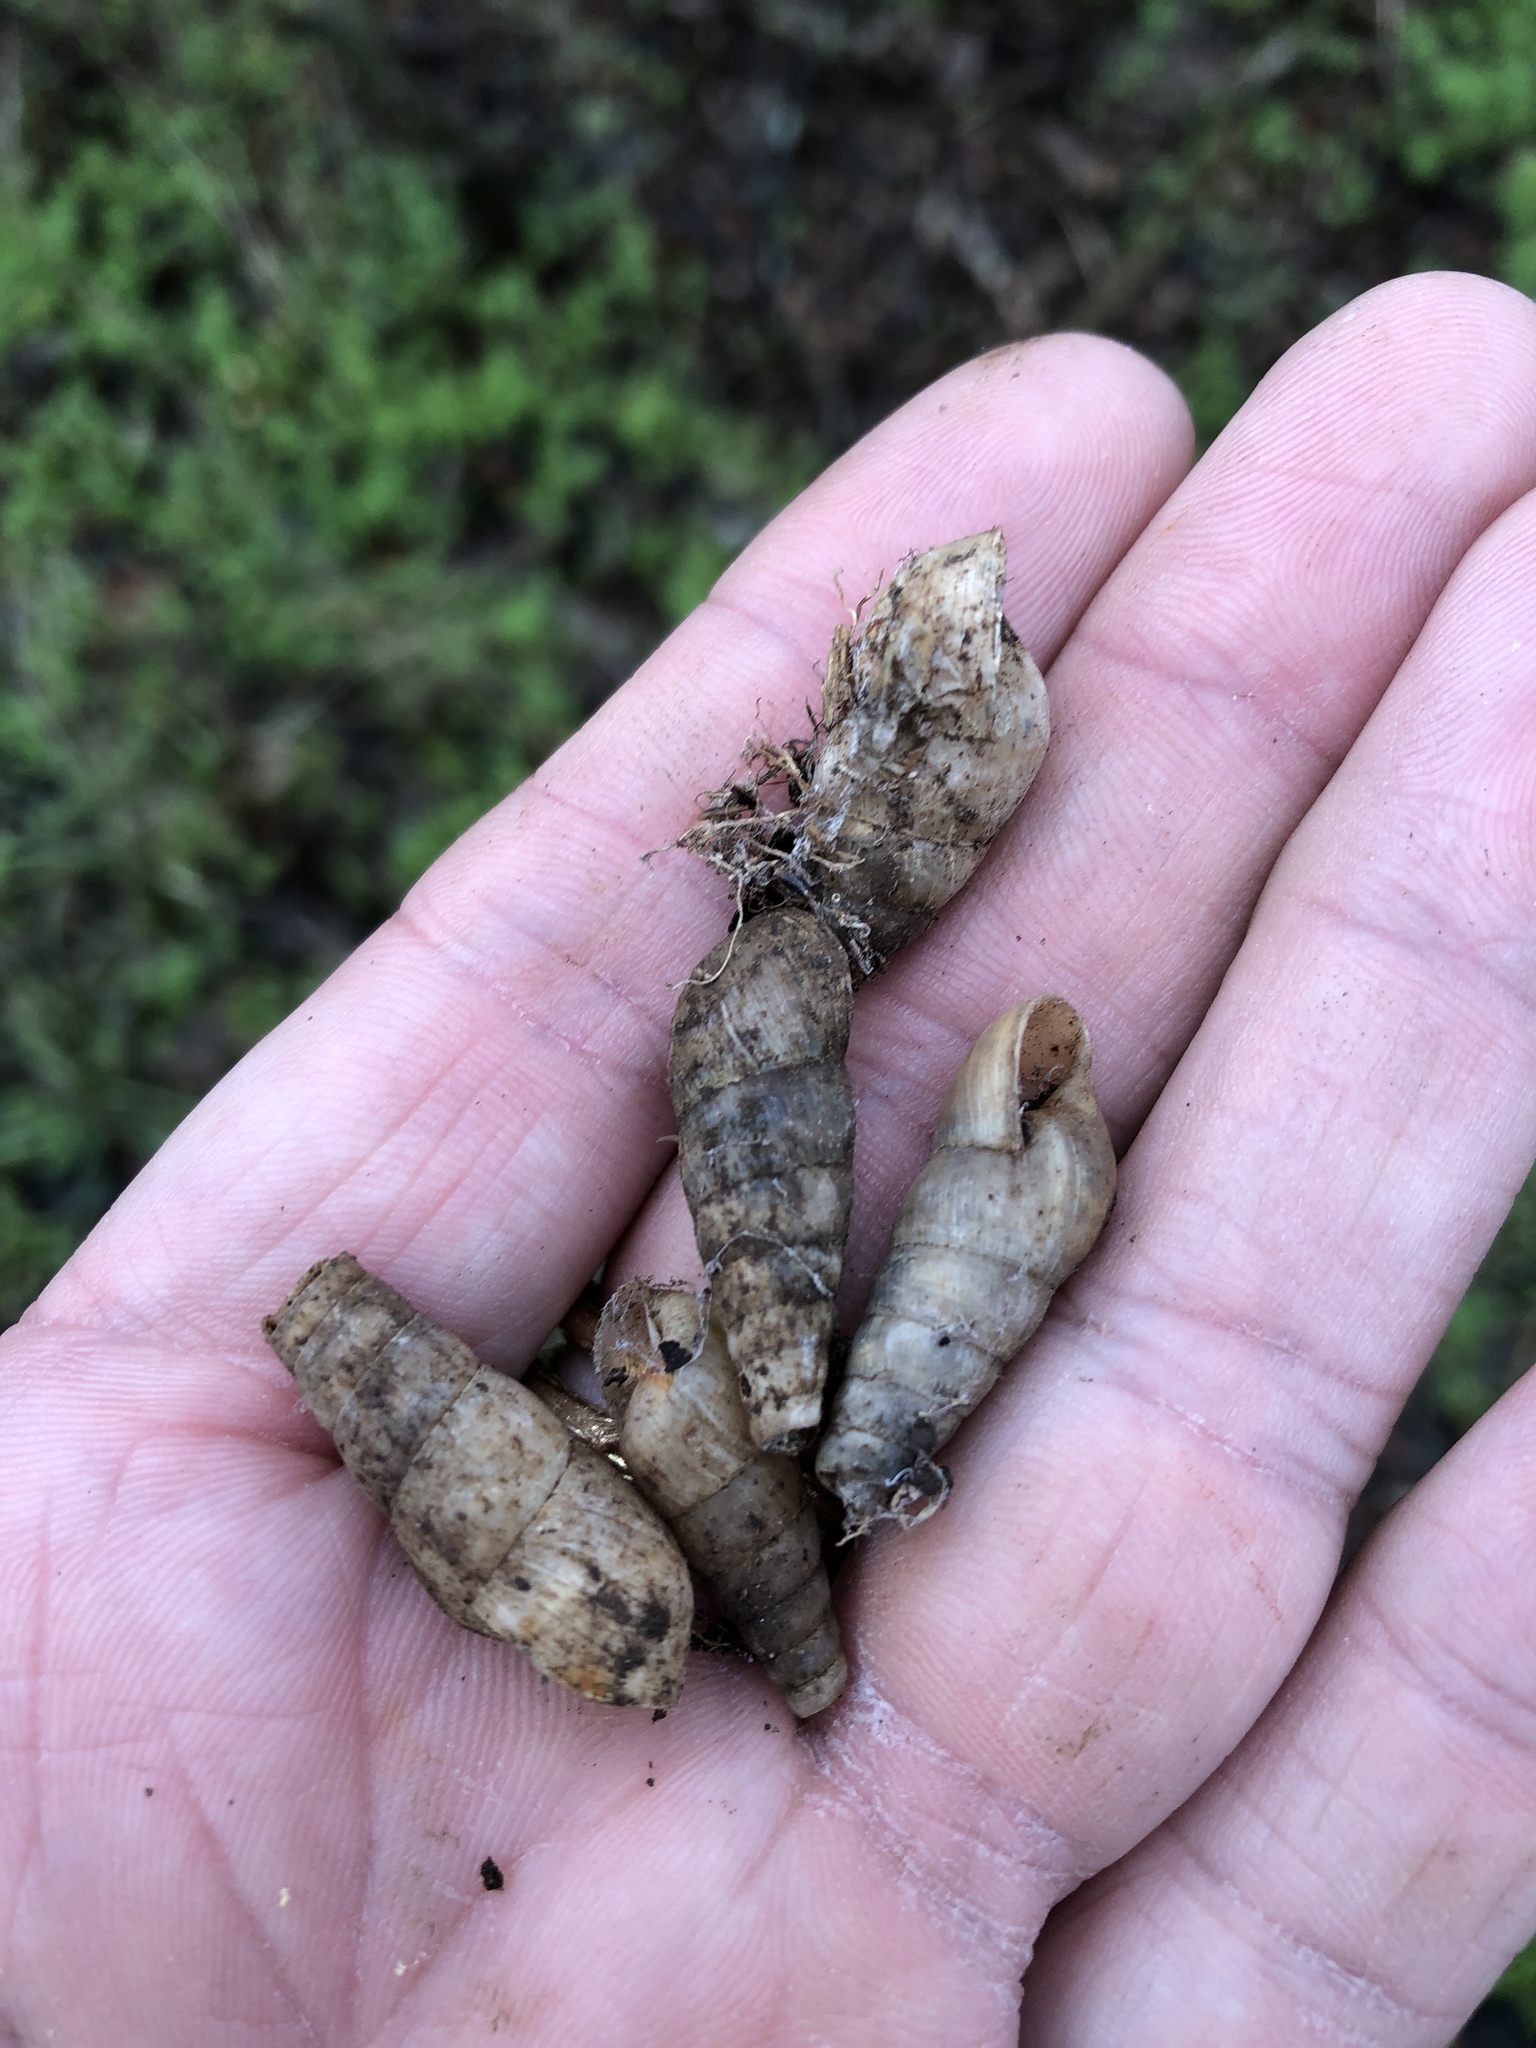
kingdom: Animalia
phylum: Mollusca
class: Gastropoda
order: Stylommatophora
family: Achatinidae
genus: Rumina
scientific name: Rumina decollata
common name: Decollate snail
